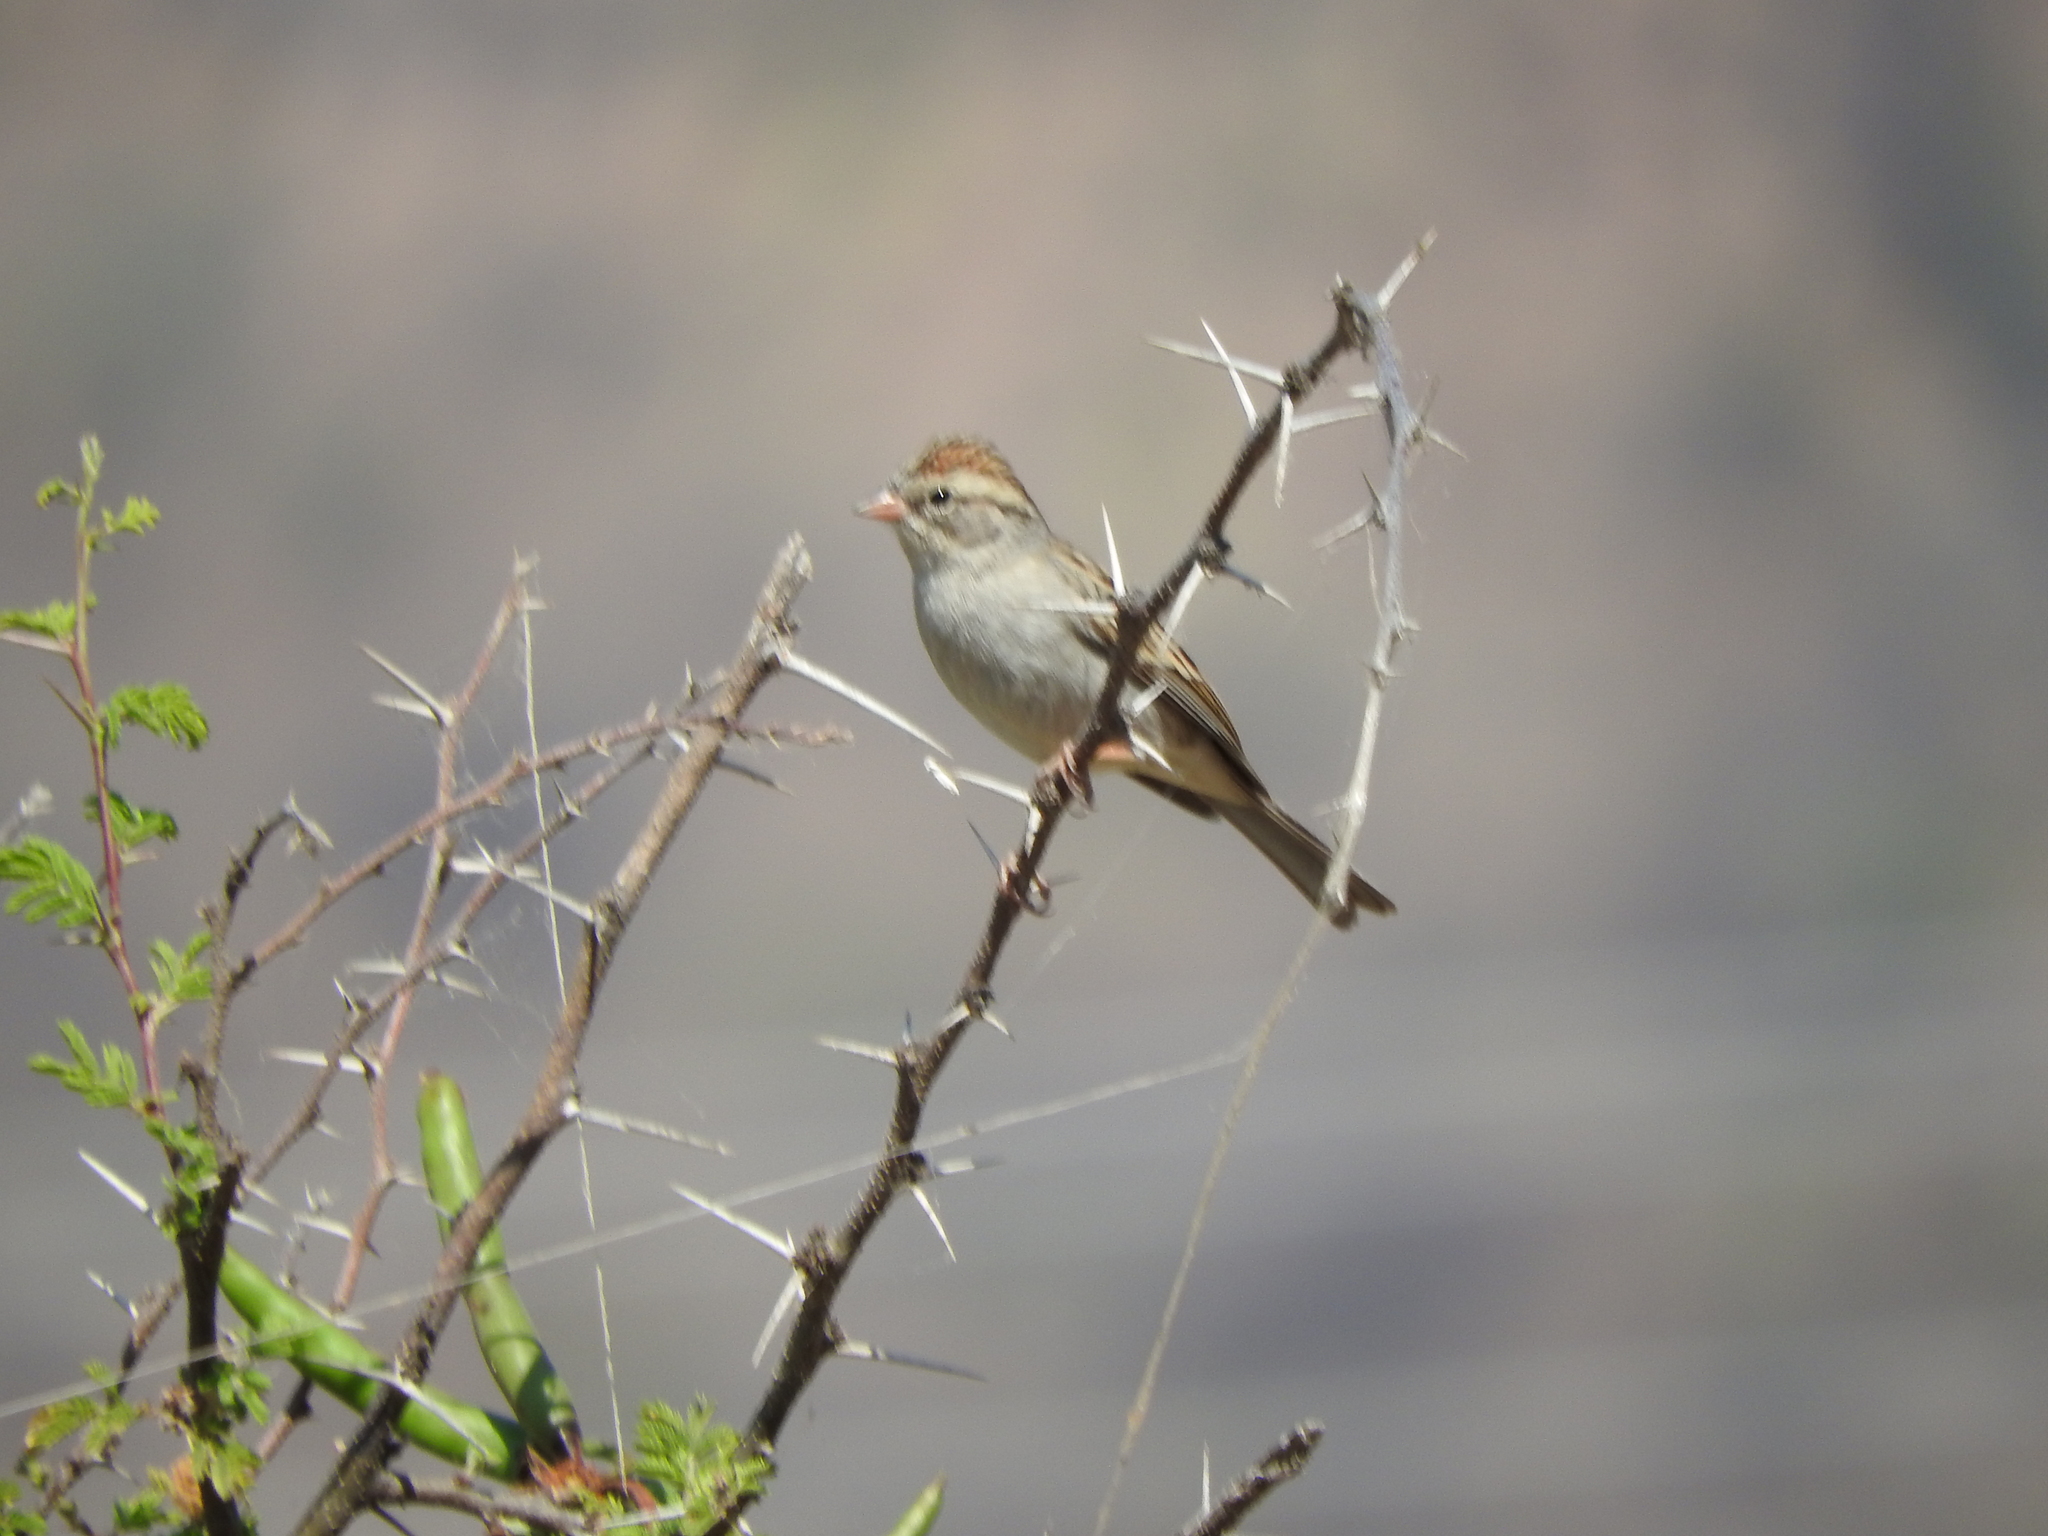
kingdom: Animalia
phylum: Chordata
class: Aves
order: Passeriformes
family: Passerellidae
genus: Spizella
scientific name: Spizella passerina
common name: Chipping sparrow
